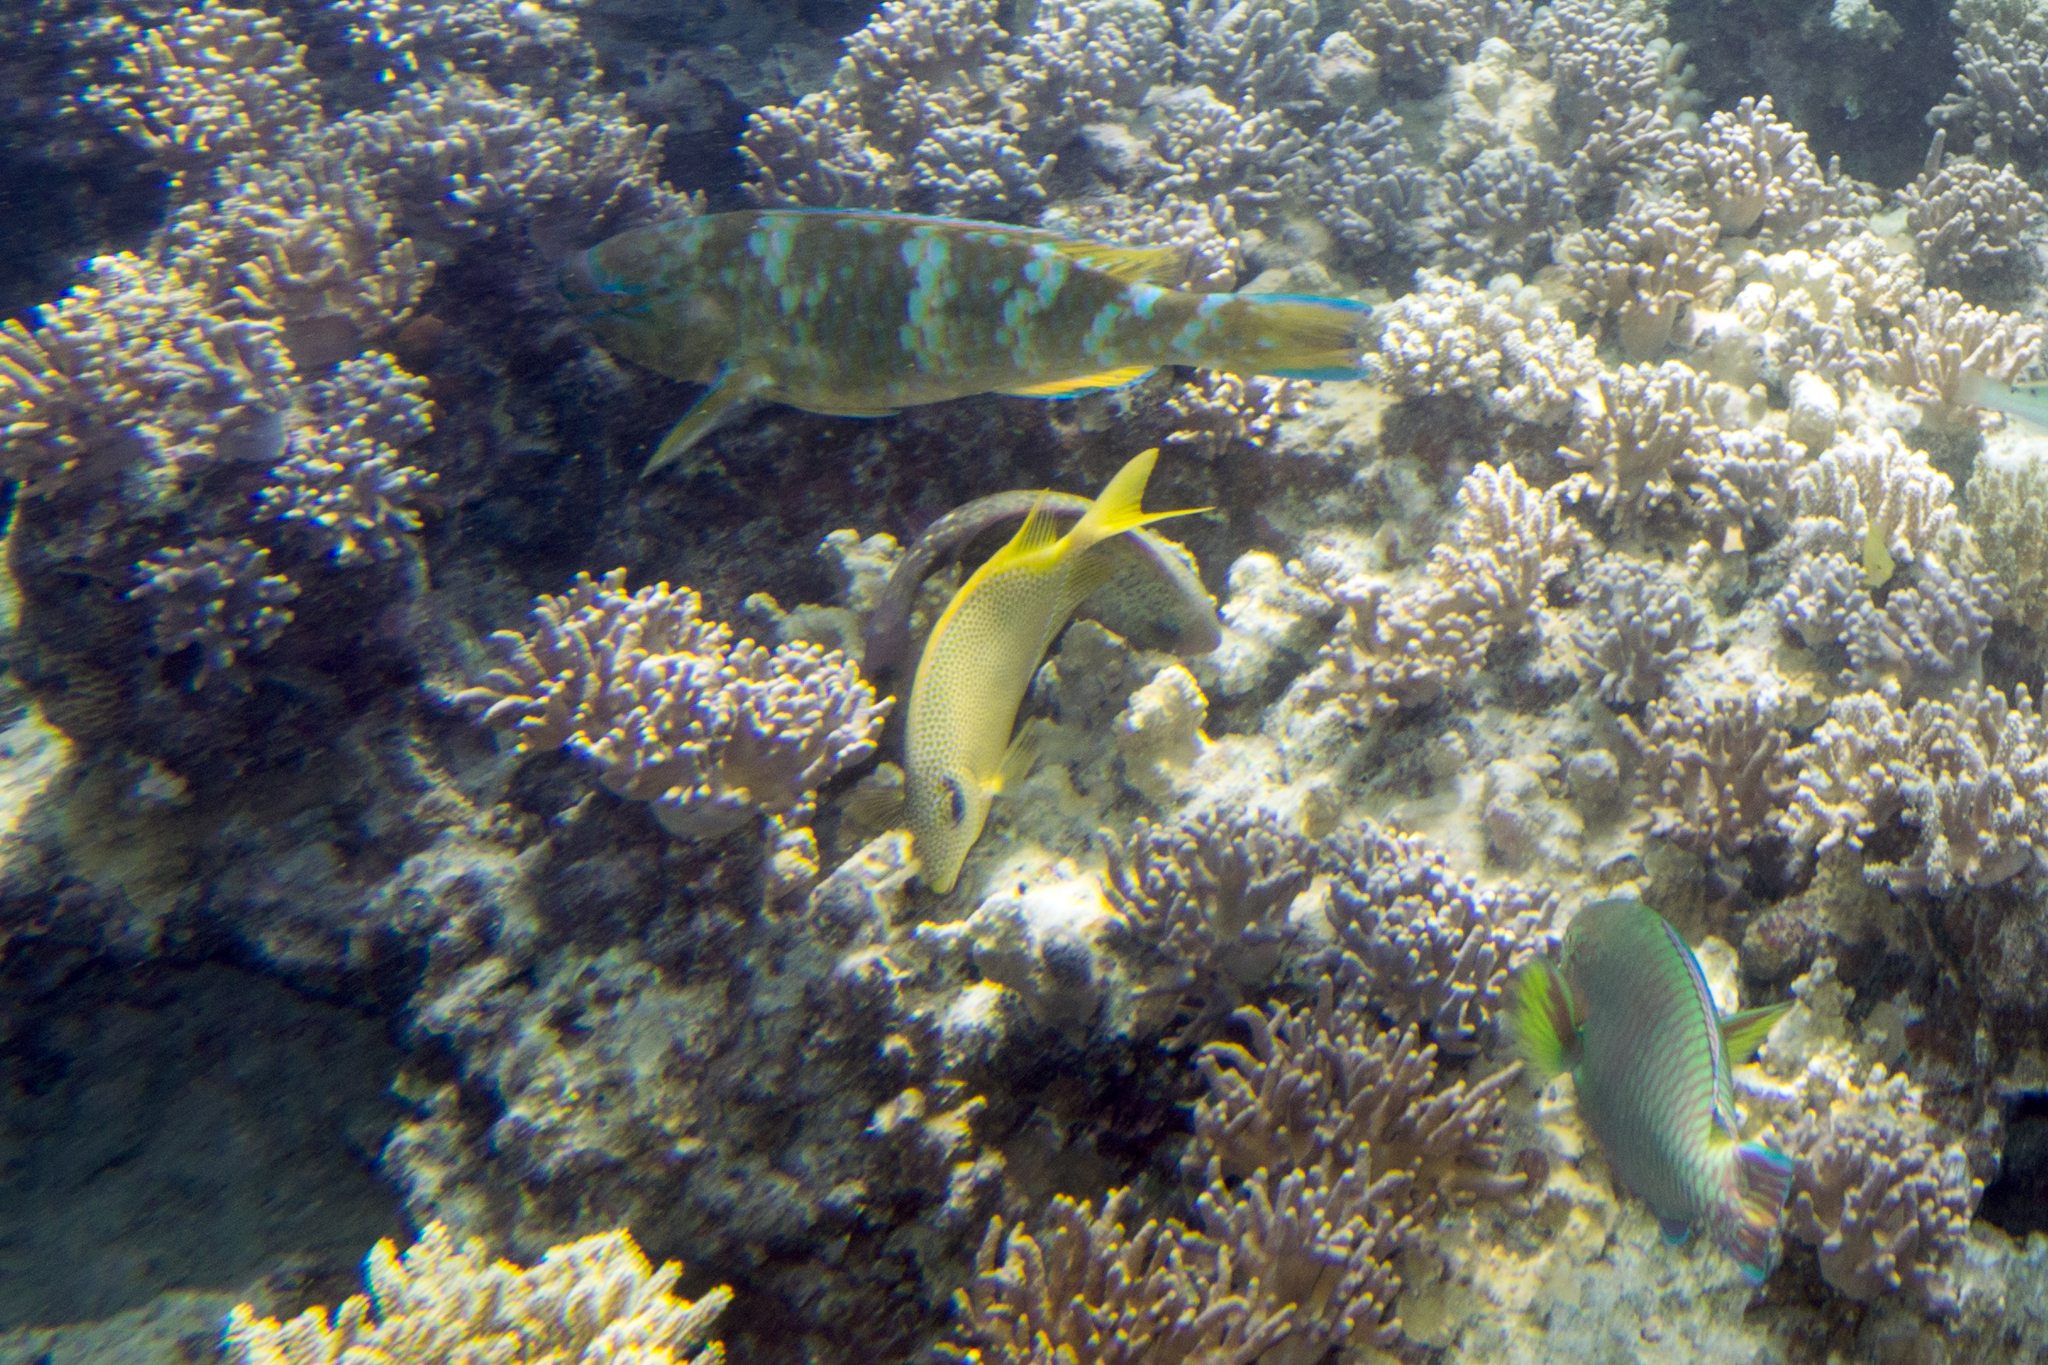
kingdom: Animalia
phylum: Chordata
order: Perciformes
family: Scaridae
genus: Scarus
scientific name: Scarus ghobban
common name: Blue-barred parrotfish
